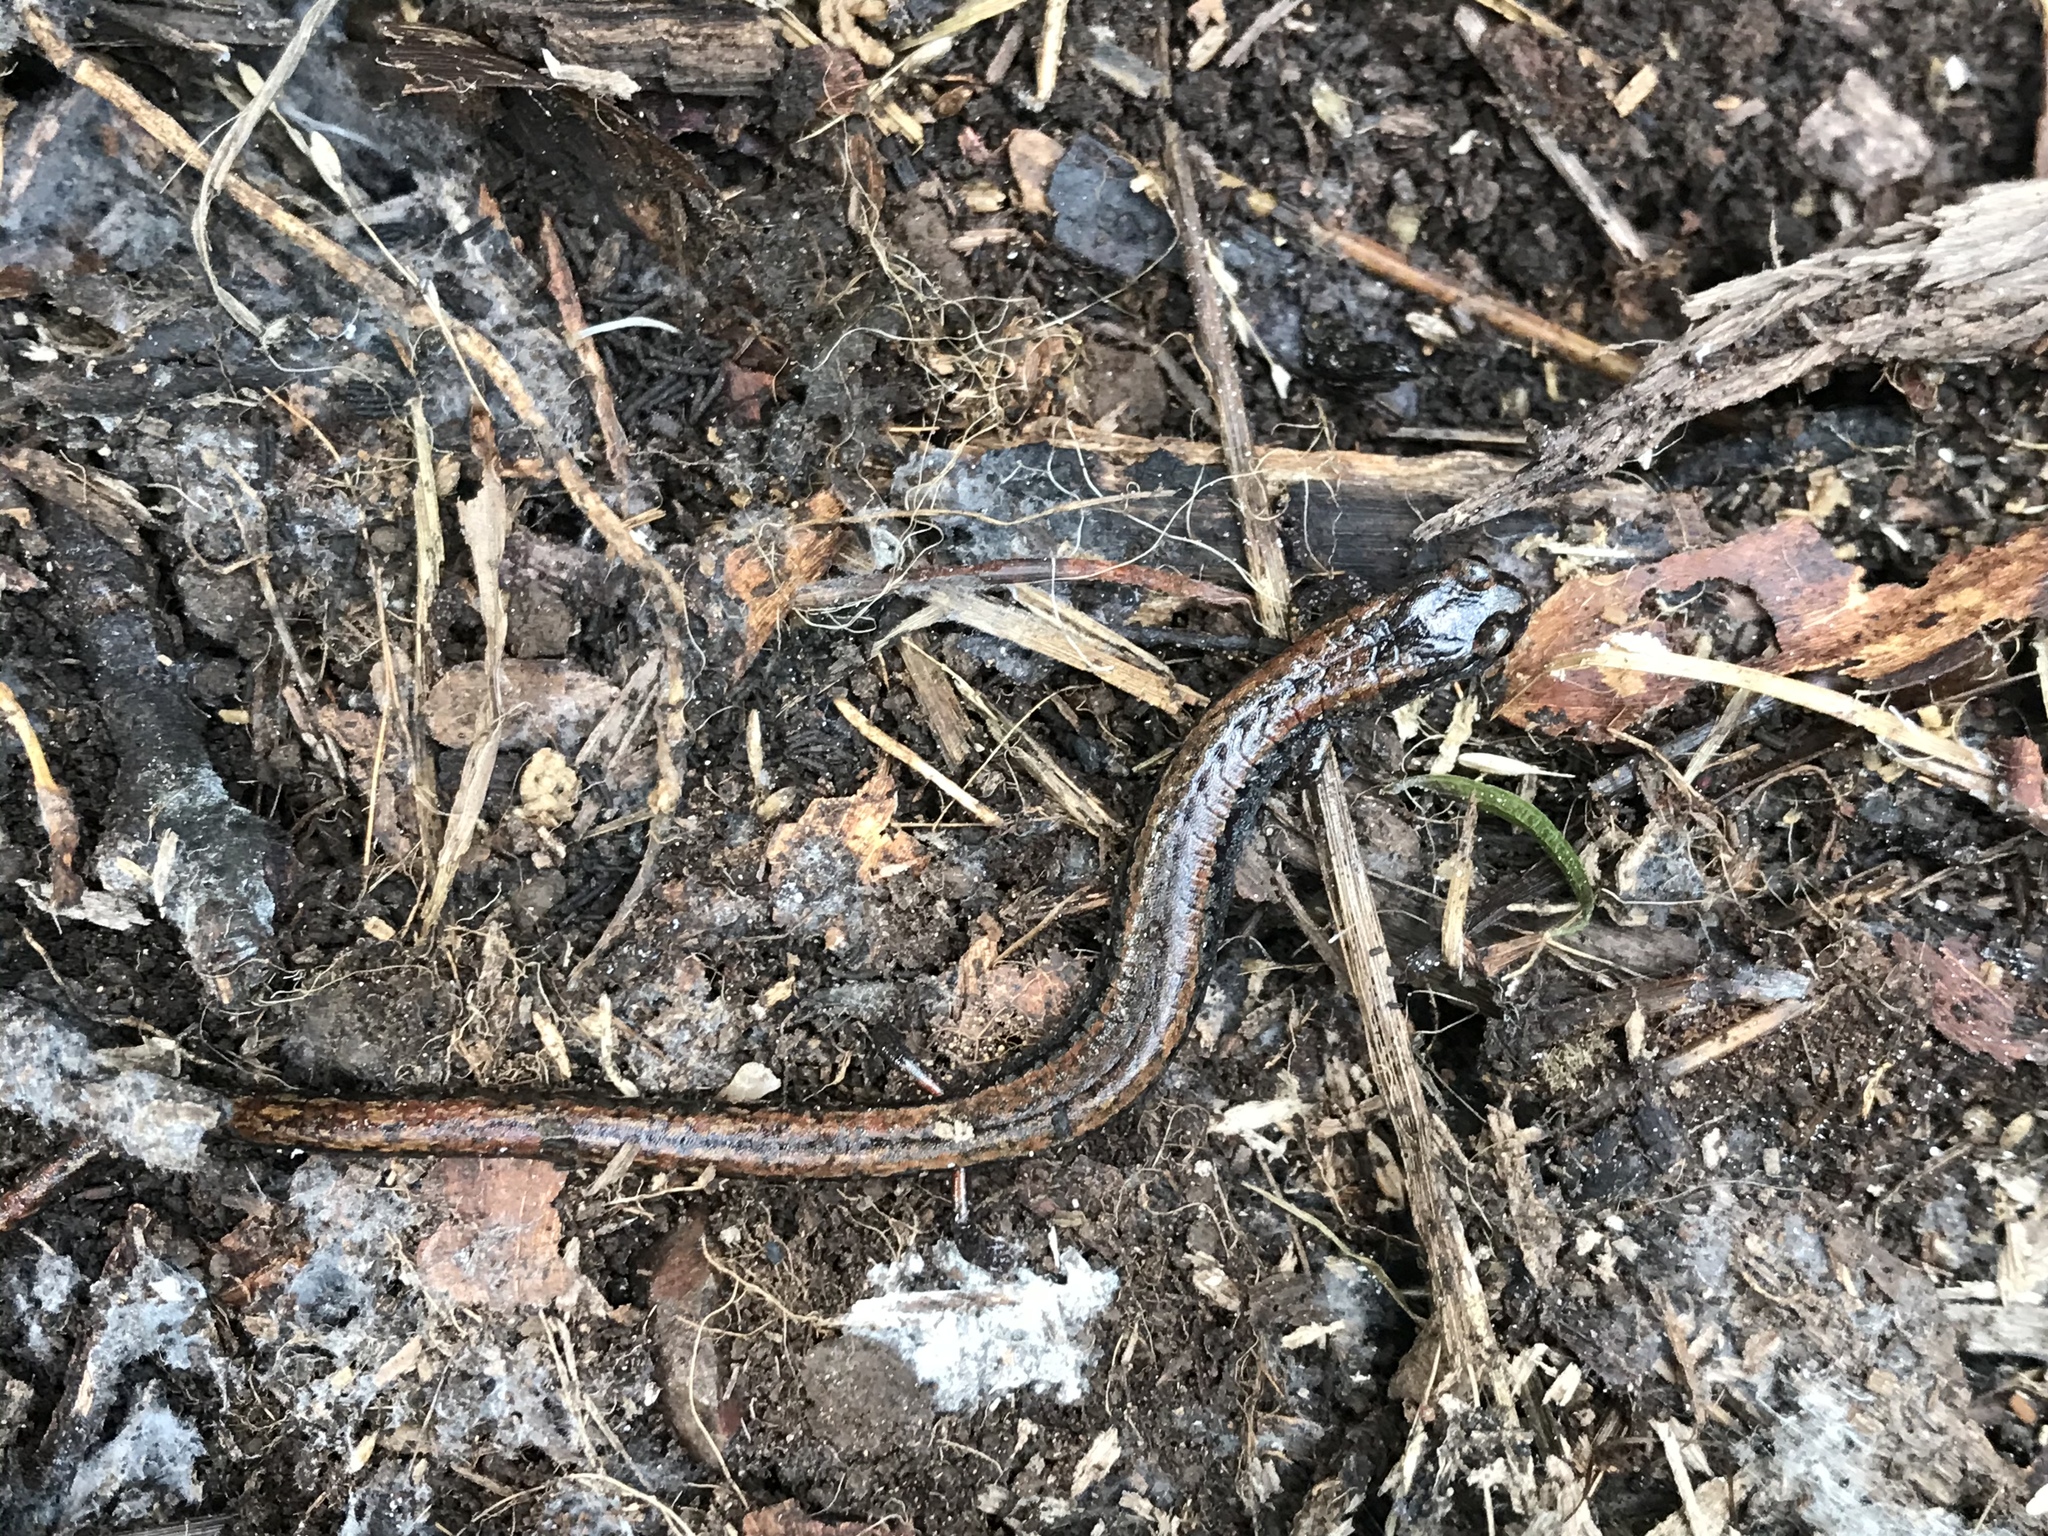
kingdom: Animalia
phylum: Chordata
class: Amphibia
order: Caudata
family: Plethodontidae
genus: Batrachoseps
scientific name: Batrachoseps attenuatus
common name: California slender salamander
